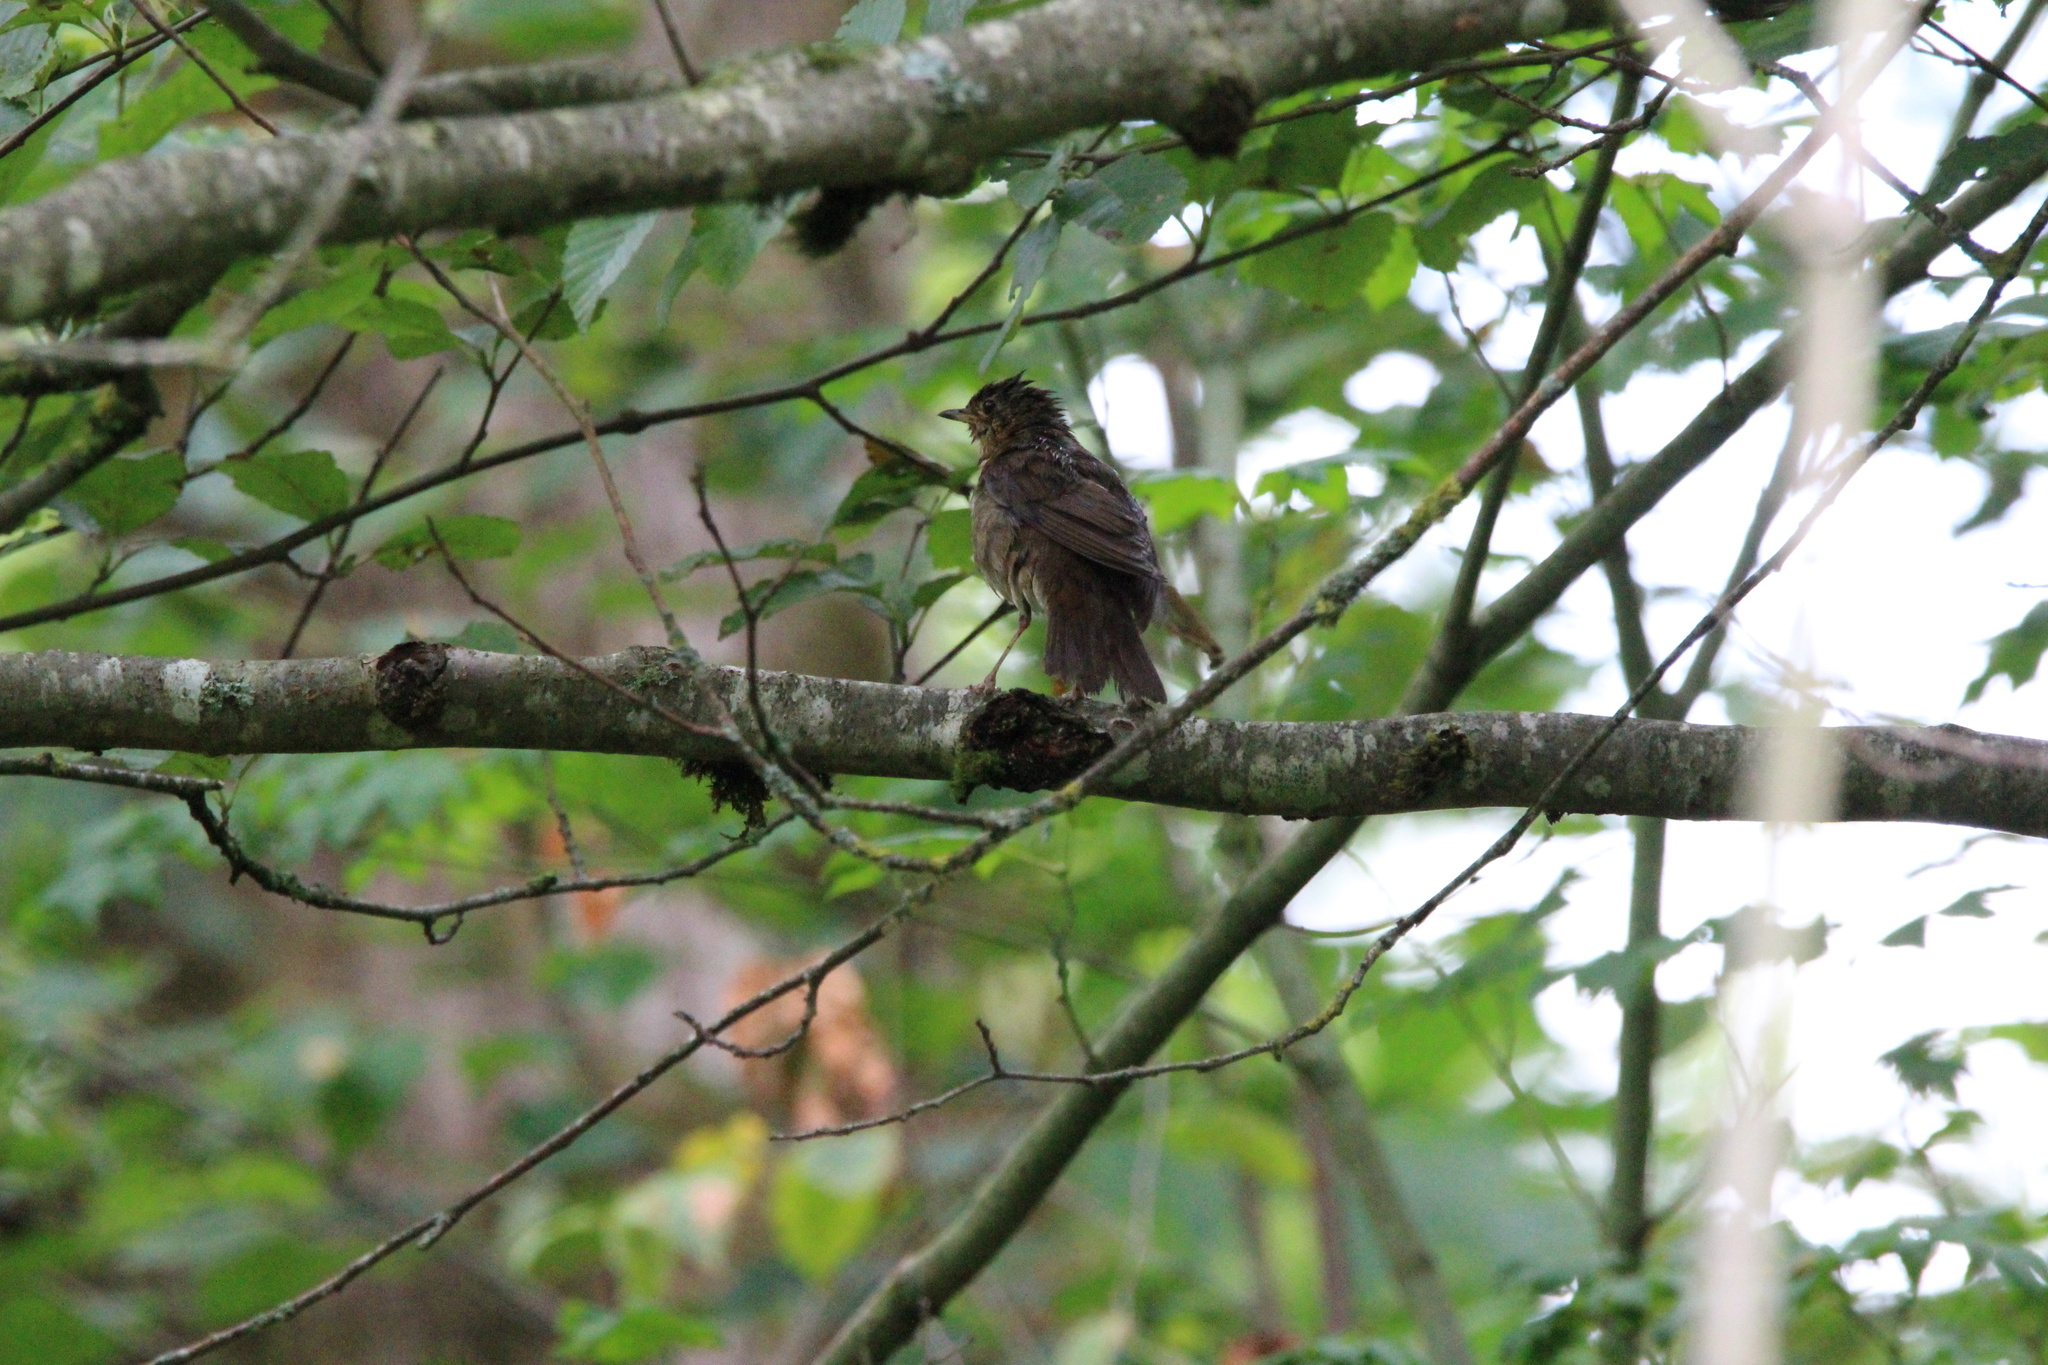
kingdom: Animalia
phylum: Chordata
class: Aves
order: Passeriformes
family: Turdidae
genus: Catharus
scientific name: Catharus ustulatus
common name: Swainson's thrush
